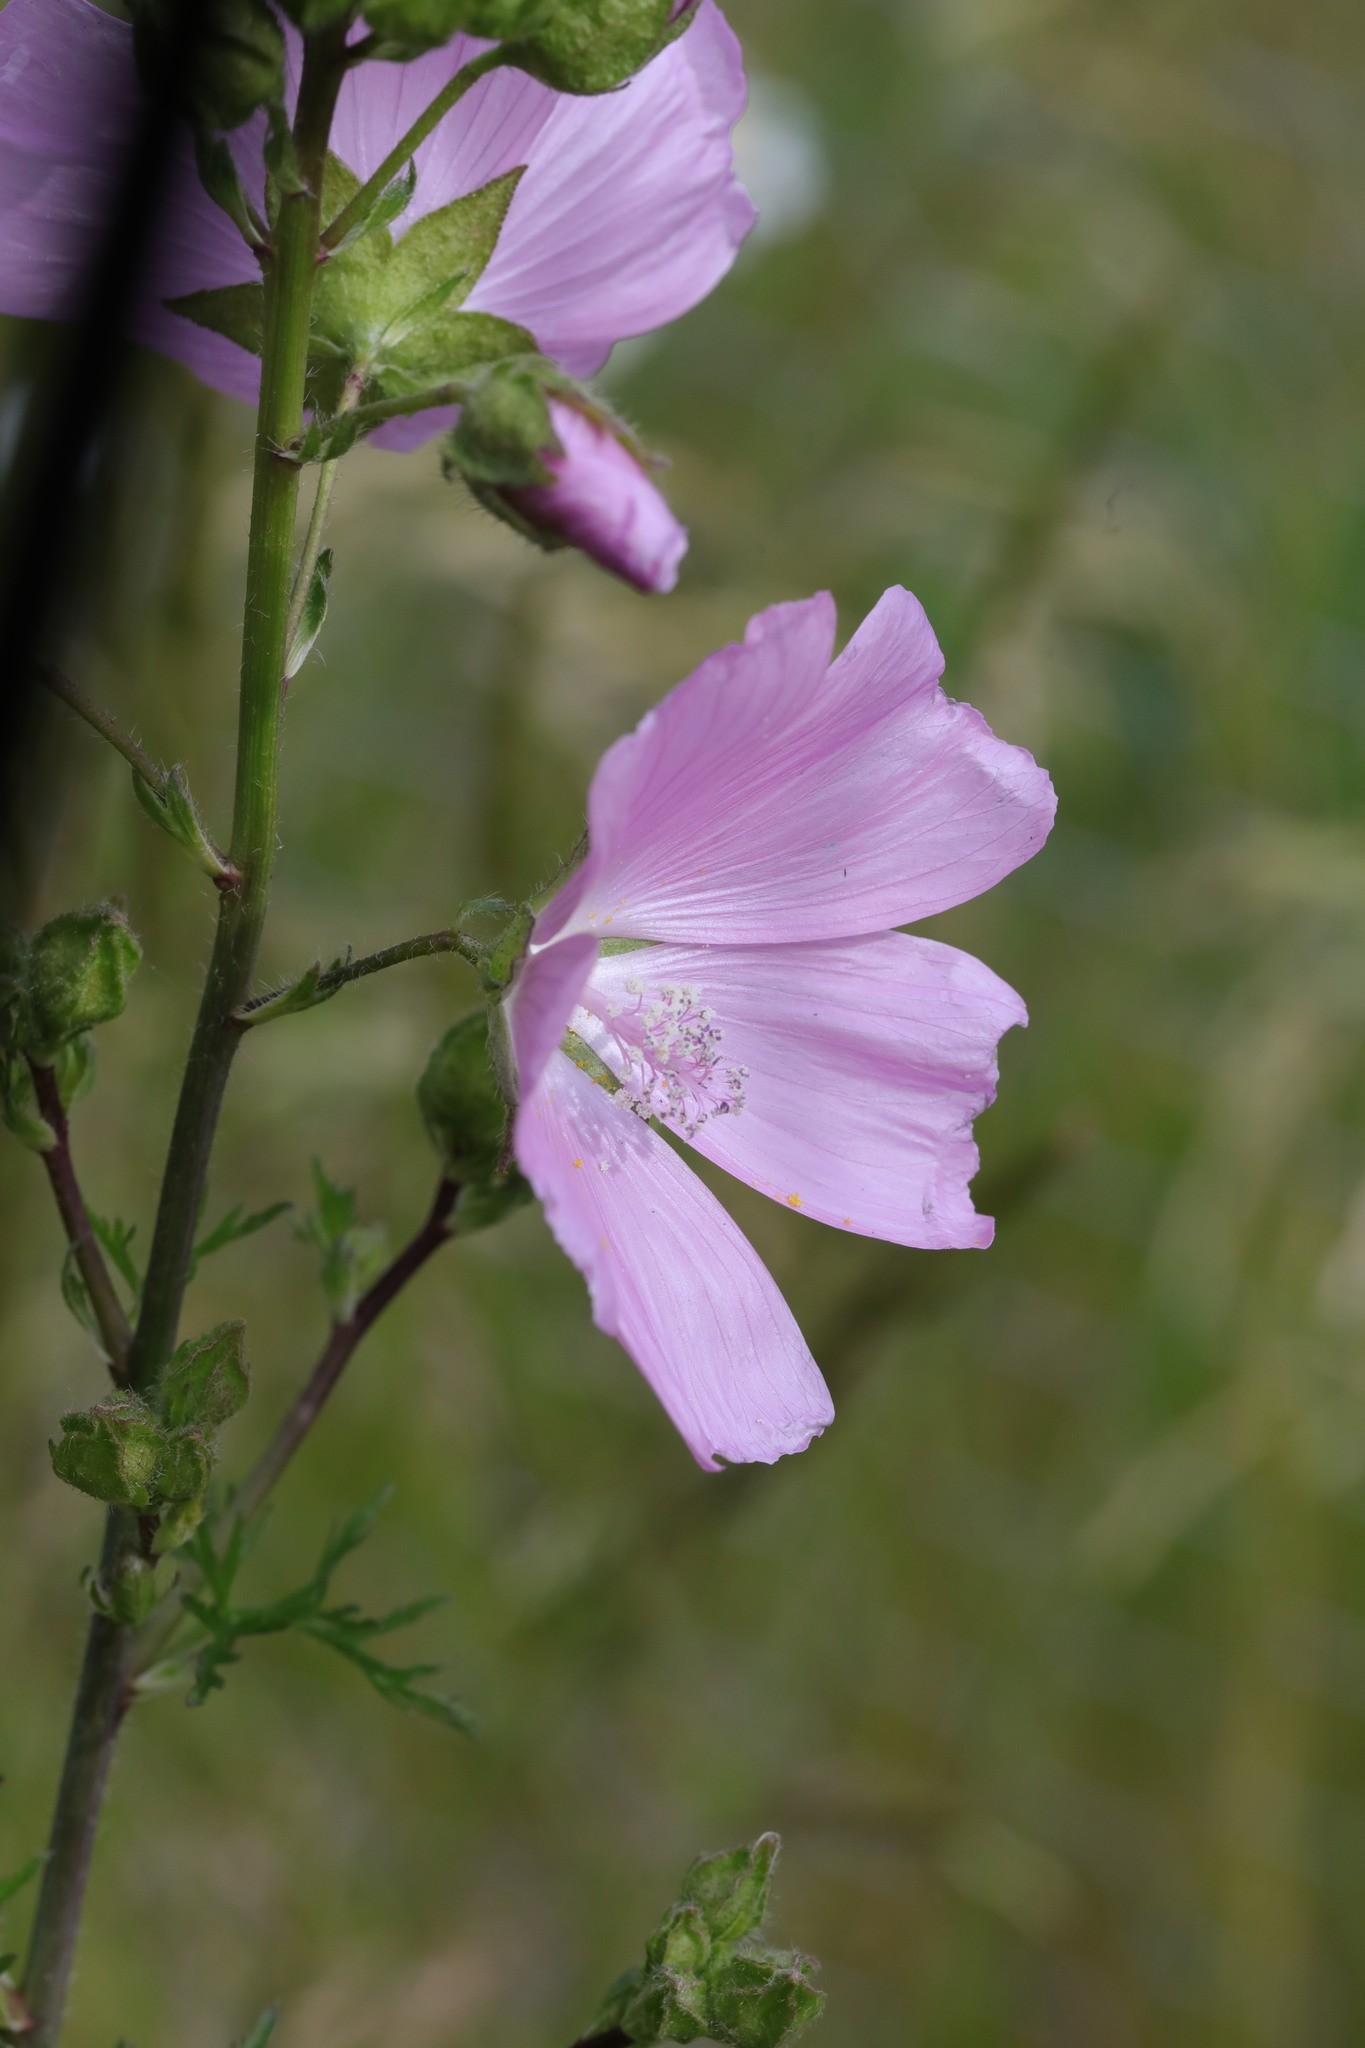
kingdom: Plantae
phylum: Tracheophyta
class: Magnoliopsida
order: Malvales
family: Malvaceae
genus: Malva
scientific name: Malva moschata
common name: Musk mallow
